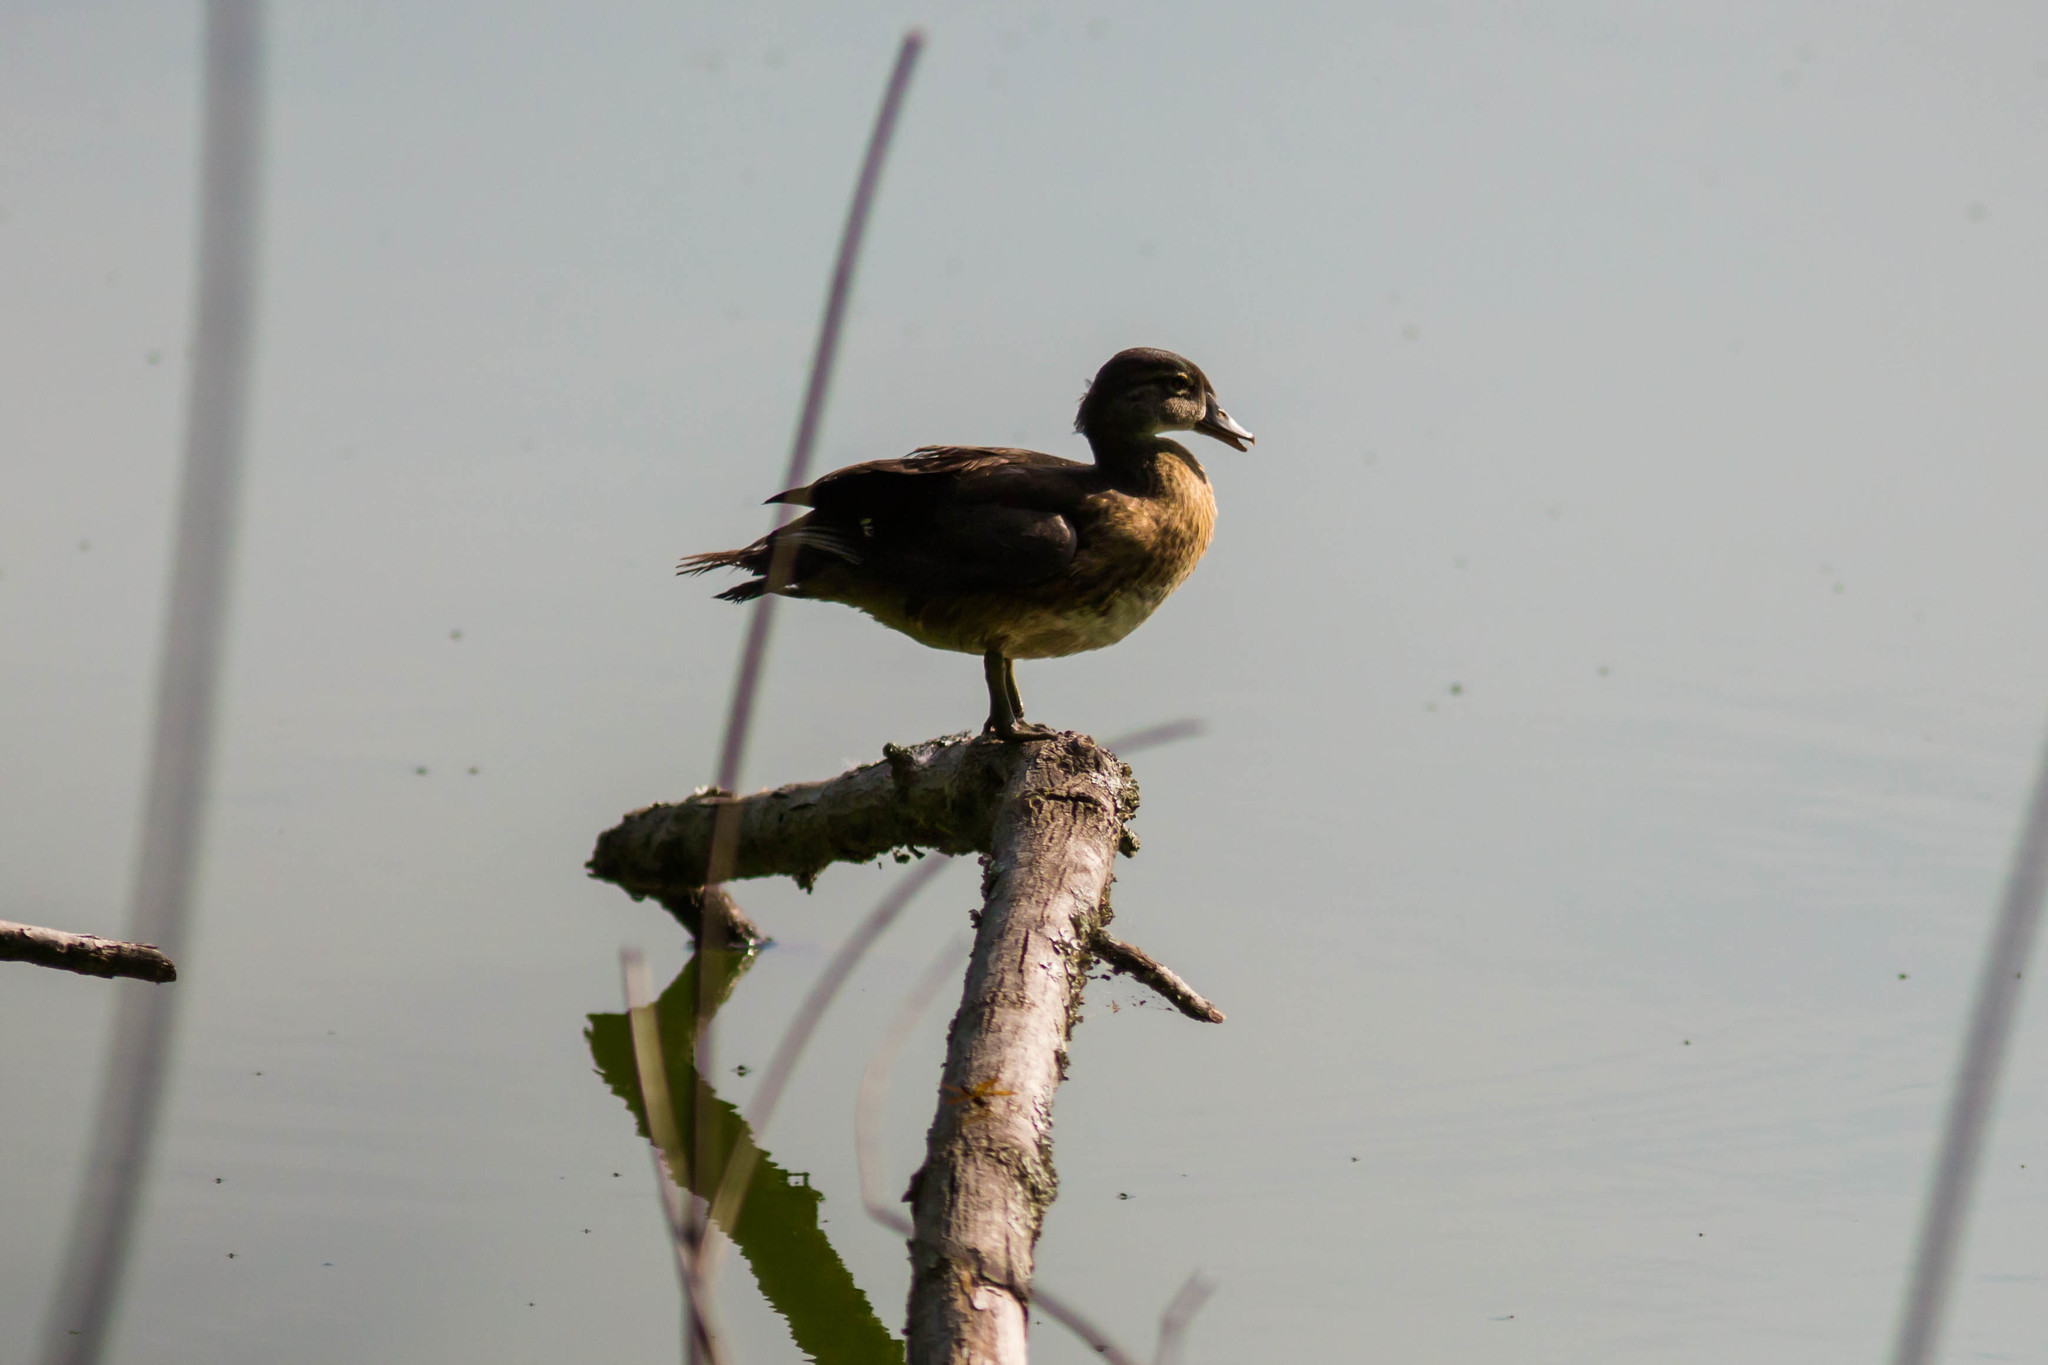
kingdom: Animalia
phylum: Chordata
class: Aves
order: Anseriformes
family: Anatidae
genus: Aix
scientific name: Aix sponsa
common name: Wood duck
